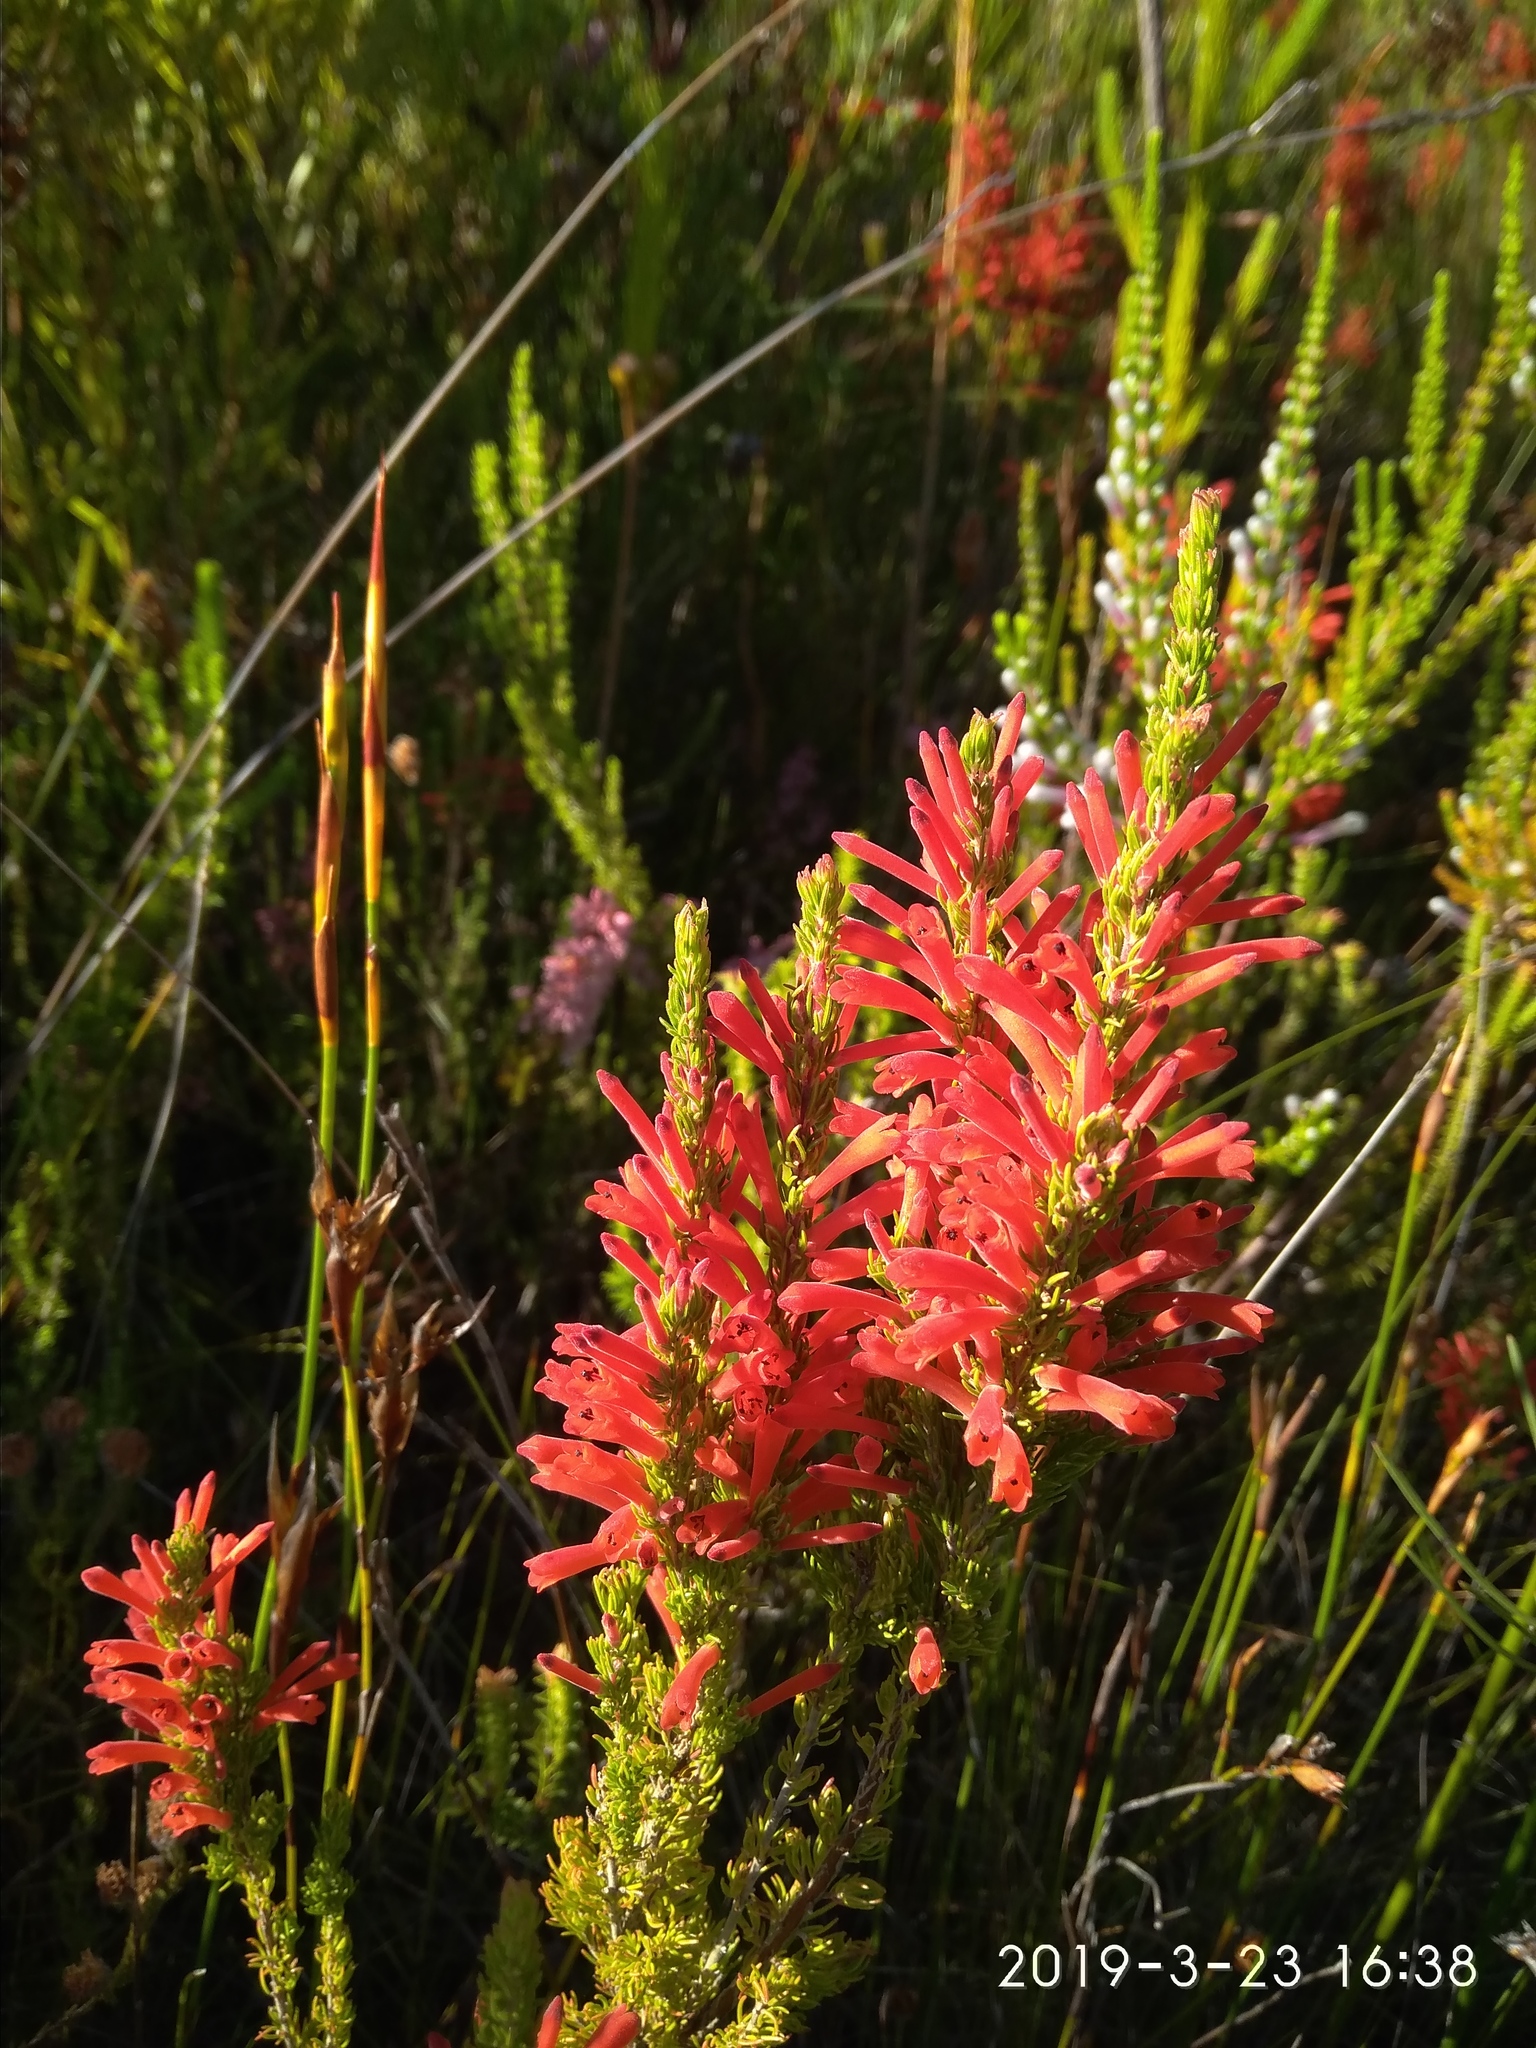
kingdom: Plantae
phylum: Tracheophyta
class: Magnoliopsida
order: Ericales
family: Ericaceae
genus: Erica
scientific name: Erica pillansii
